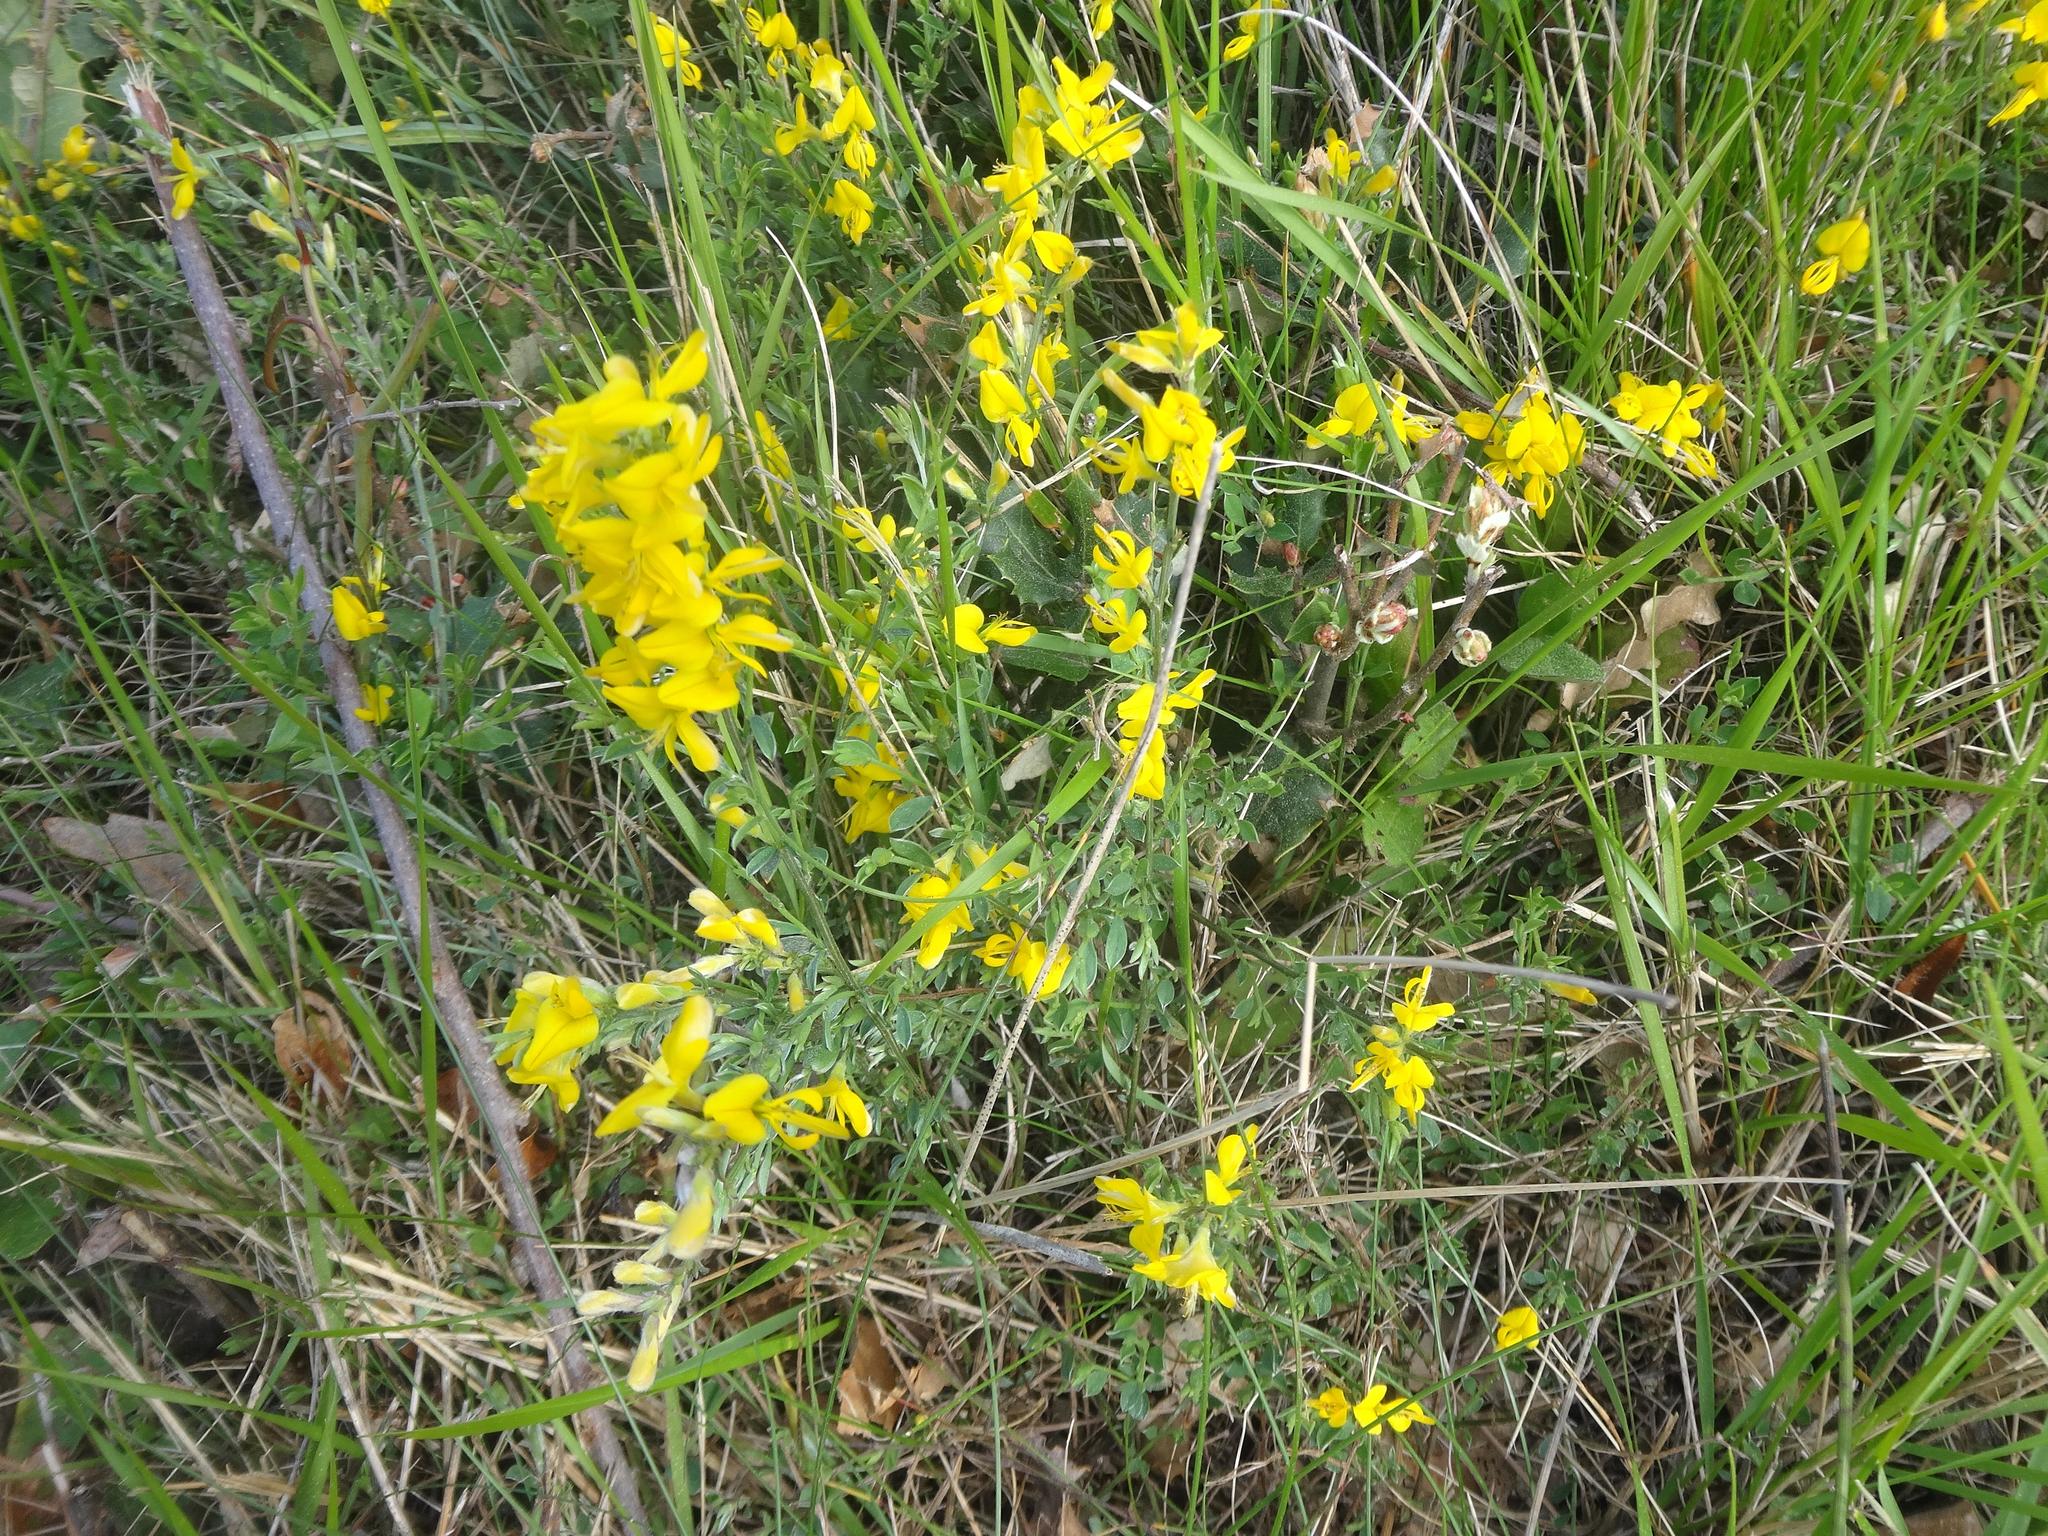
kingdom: Plantae
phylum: Tracheophyta
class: Magnoliopsida
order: Fabales
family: Fabaceae
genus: Genista
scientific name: Genista tinctoria
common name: Dyer's greenweed
